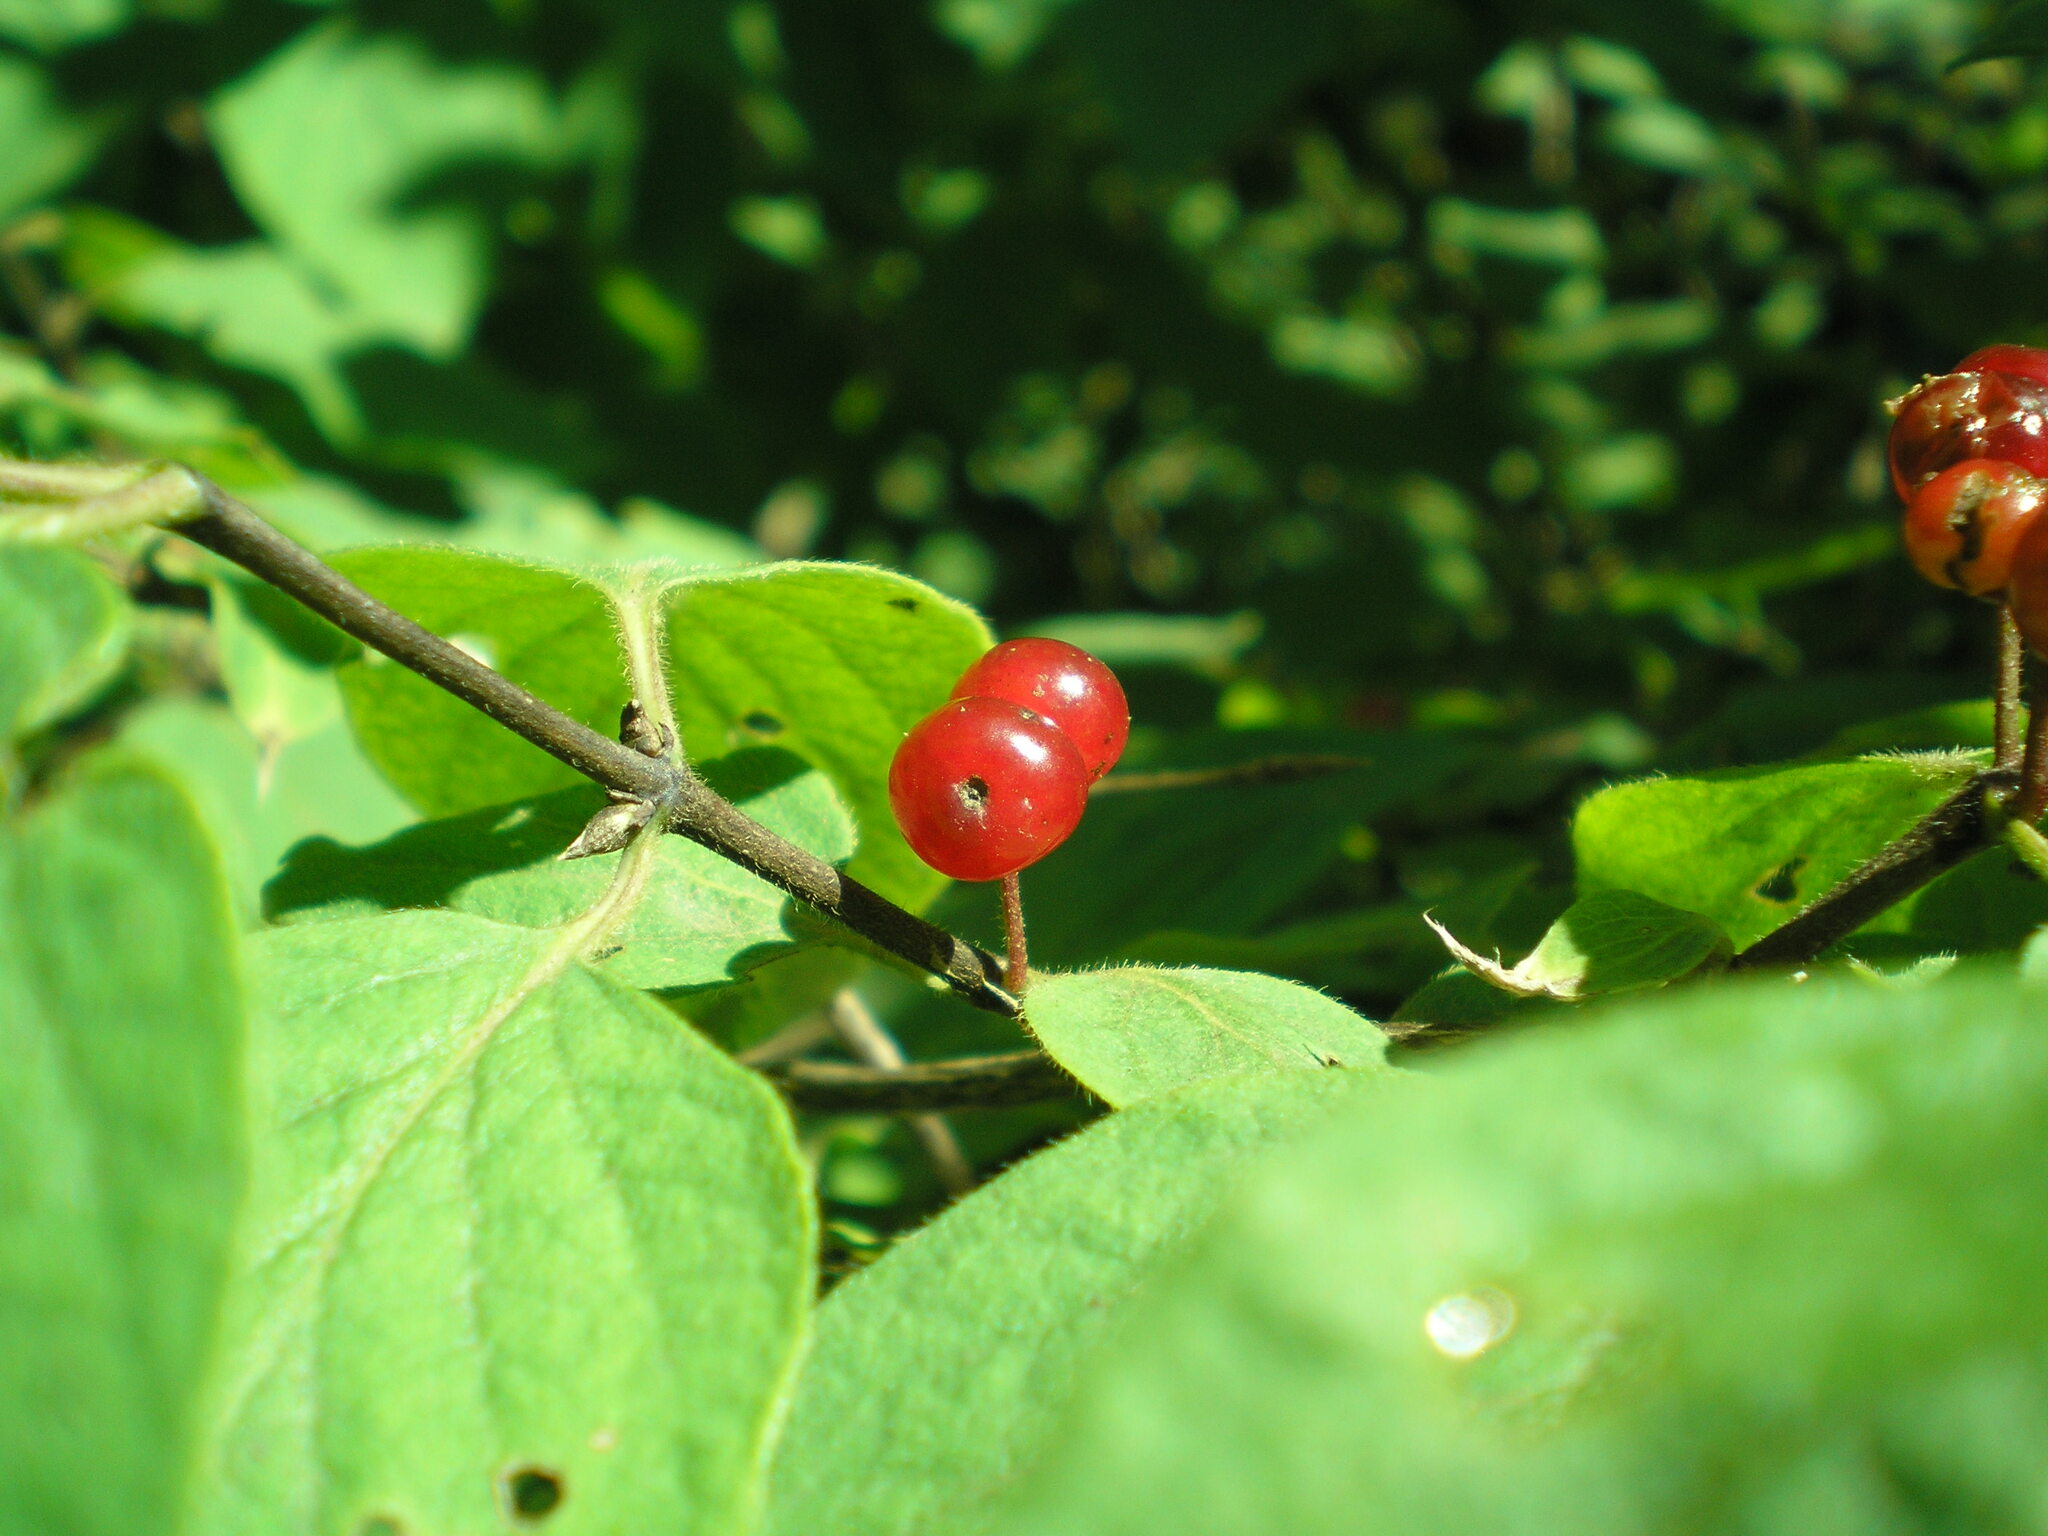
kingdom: Plantae
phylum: Tracheophyta
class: Magnoliopsida
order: Dipsacales
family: Caprifoliaceae
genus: Lonicera
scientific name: Lonicera xylosteum
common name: Fly honeysuckle
